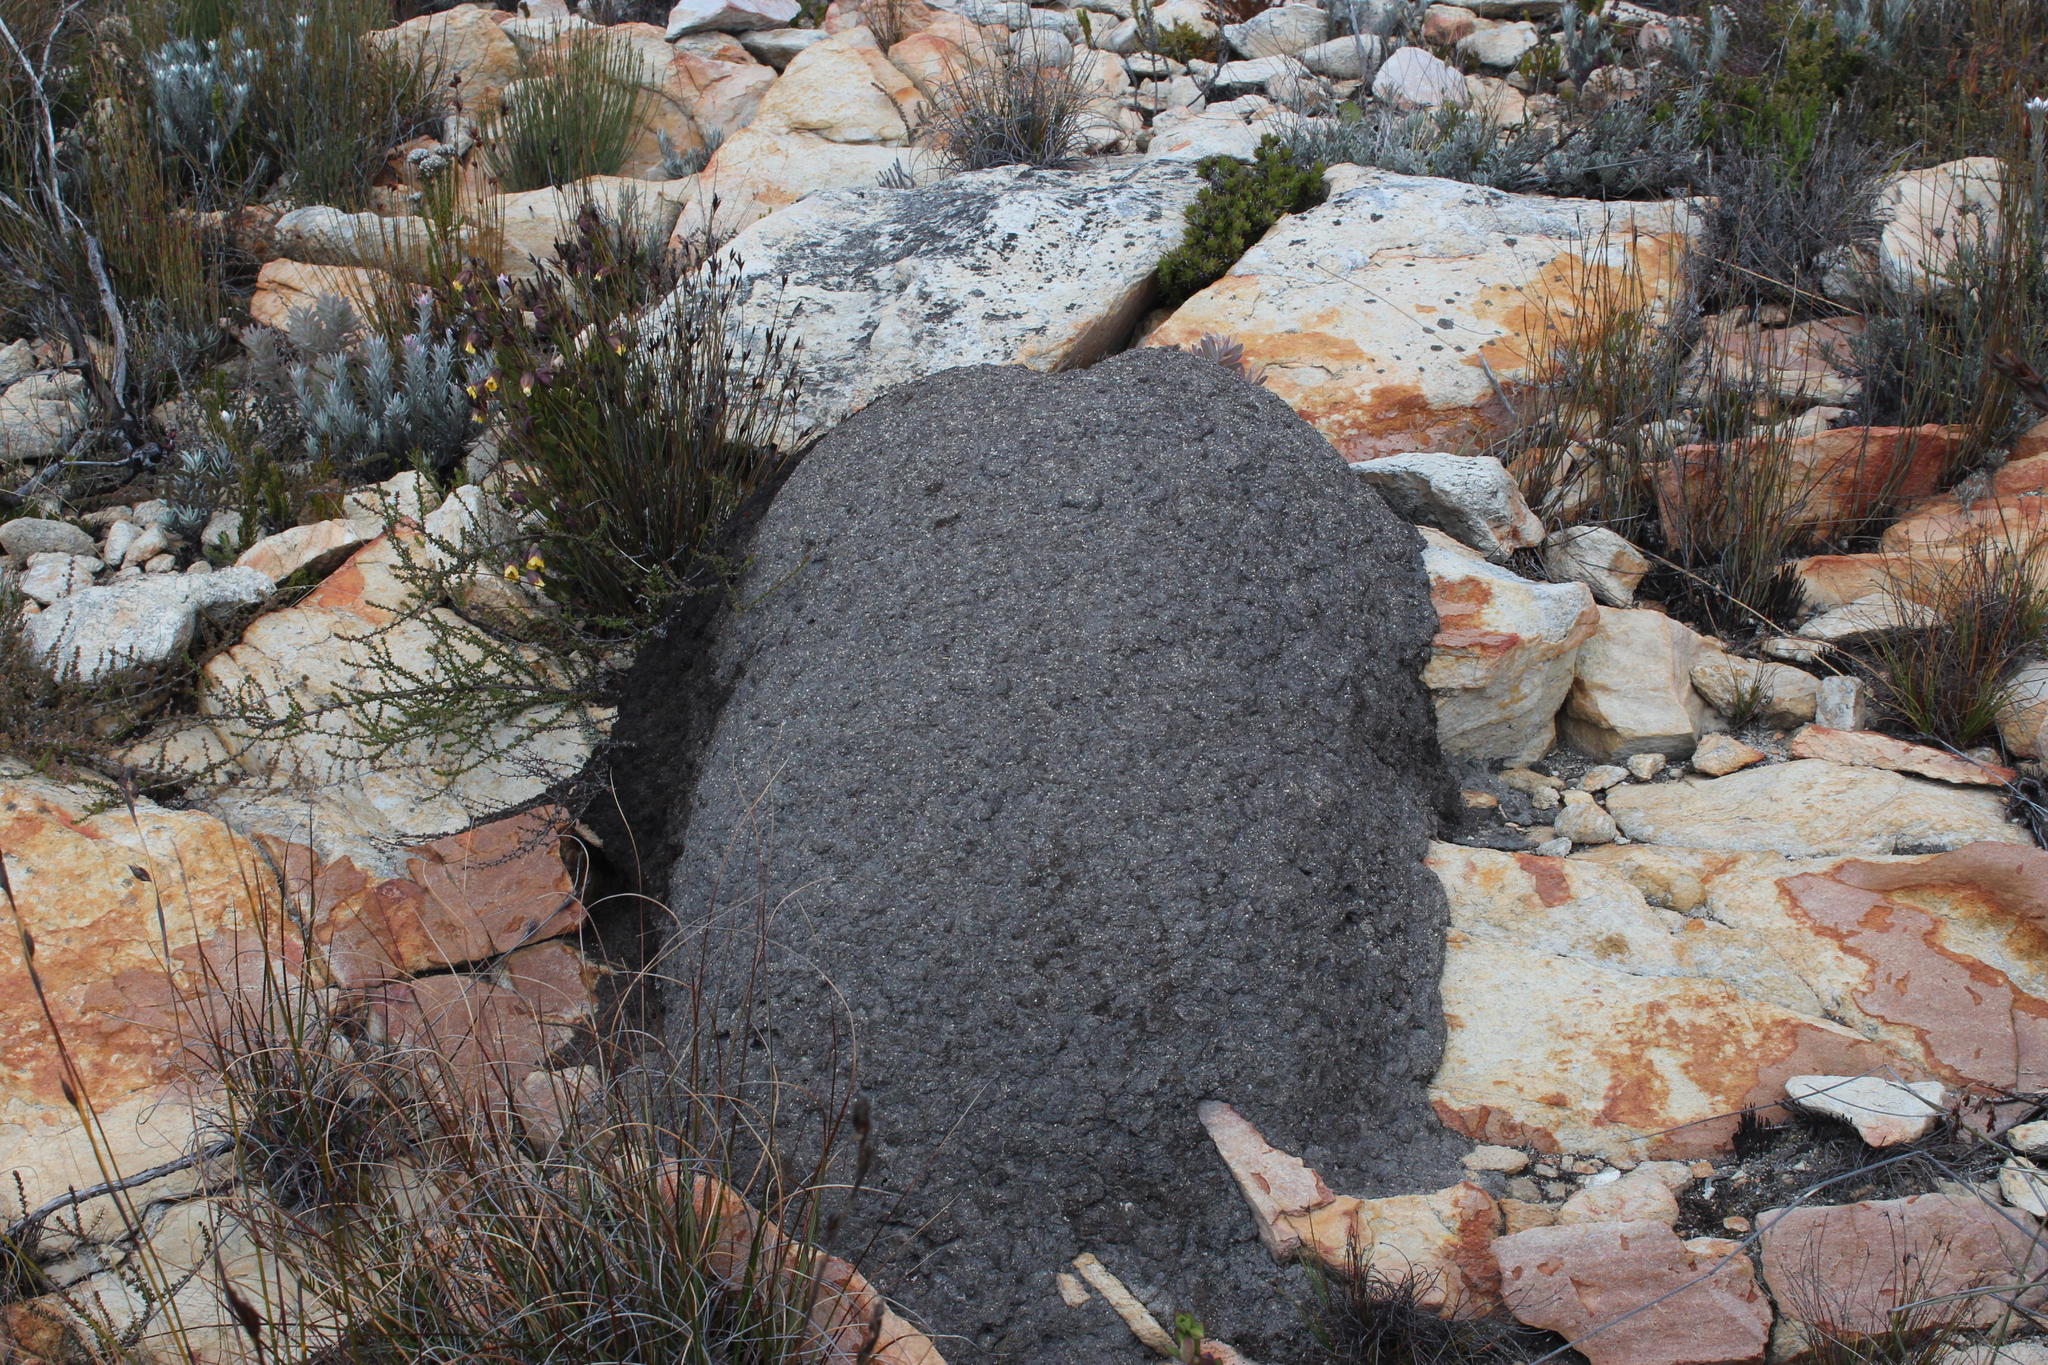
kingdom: Animalia
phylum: Arthropoda
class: Insecta
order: Blattodea
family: Termitidae
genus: Amitermes
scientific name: Amitermes hastatus
